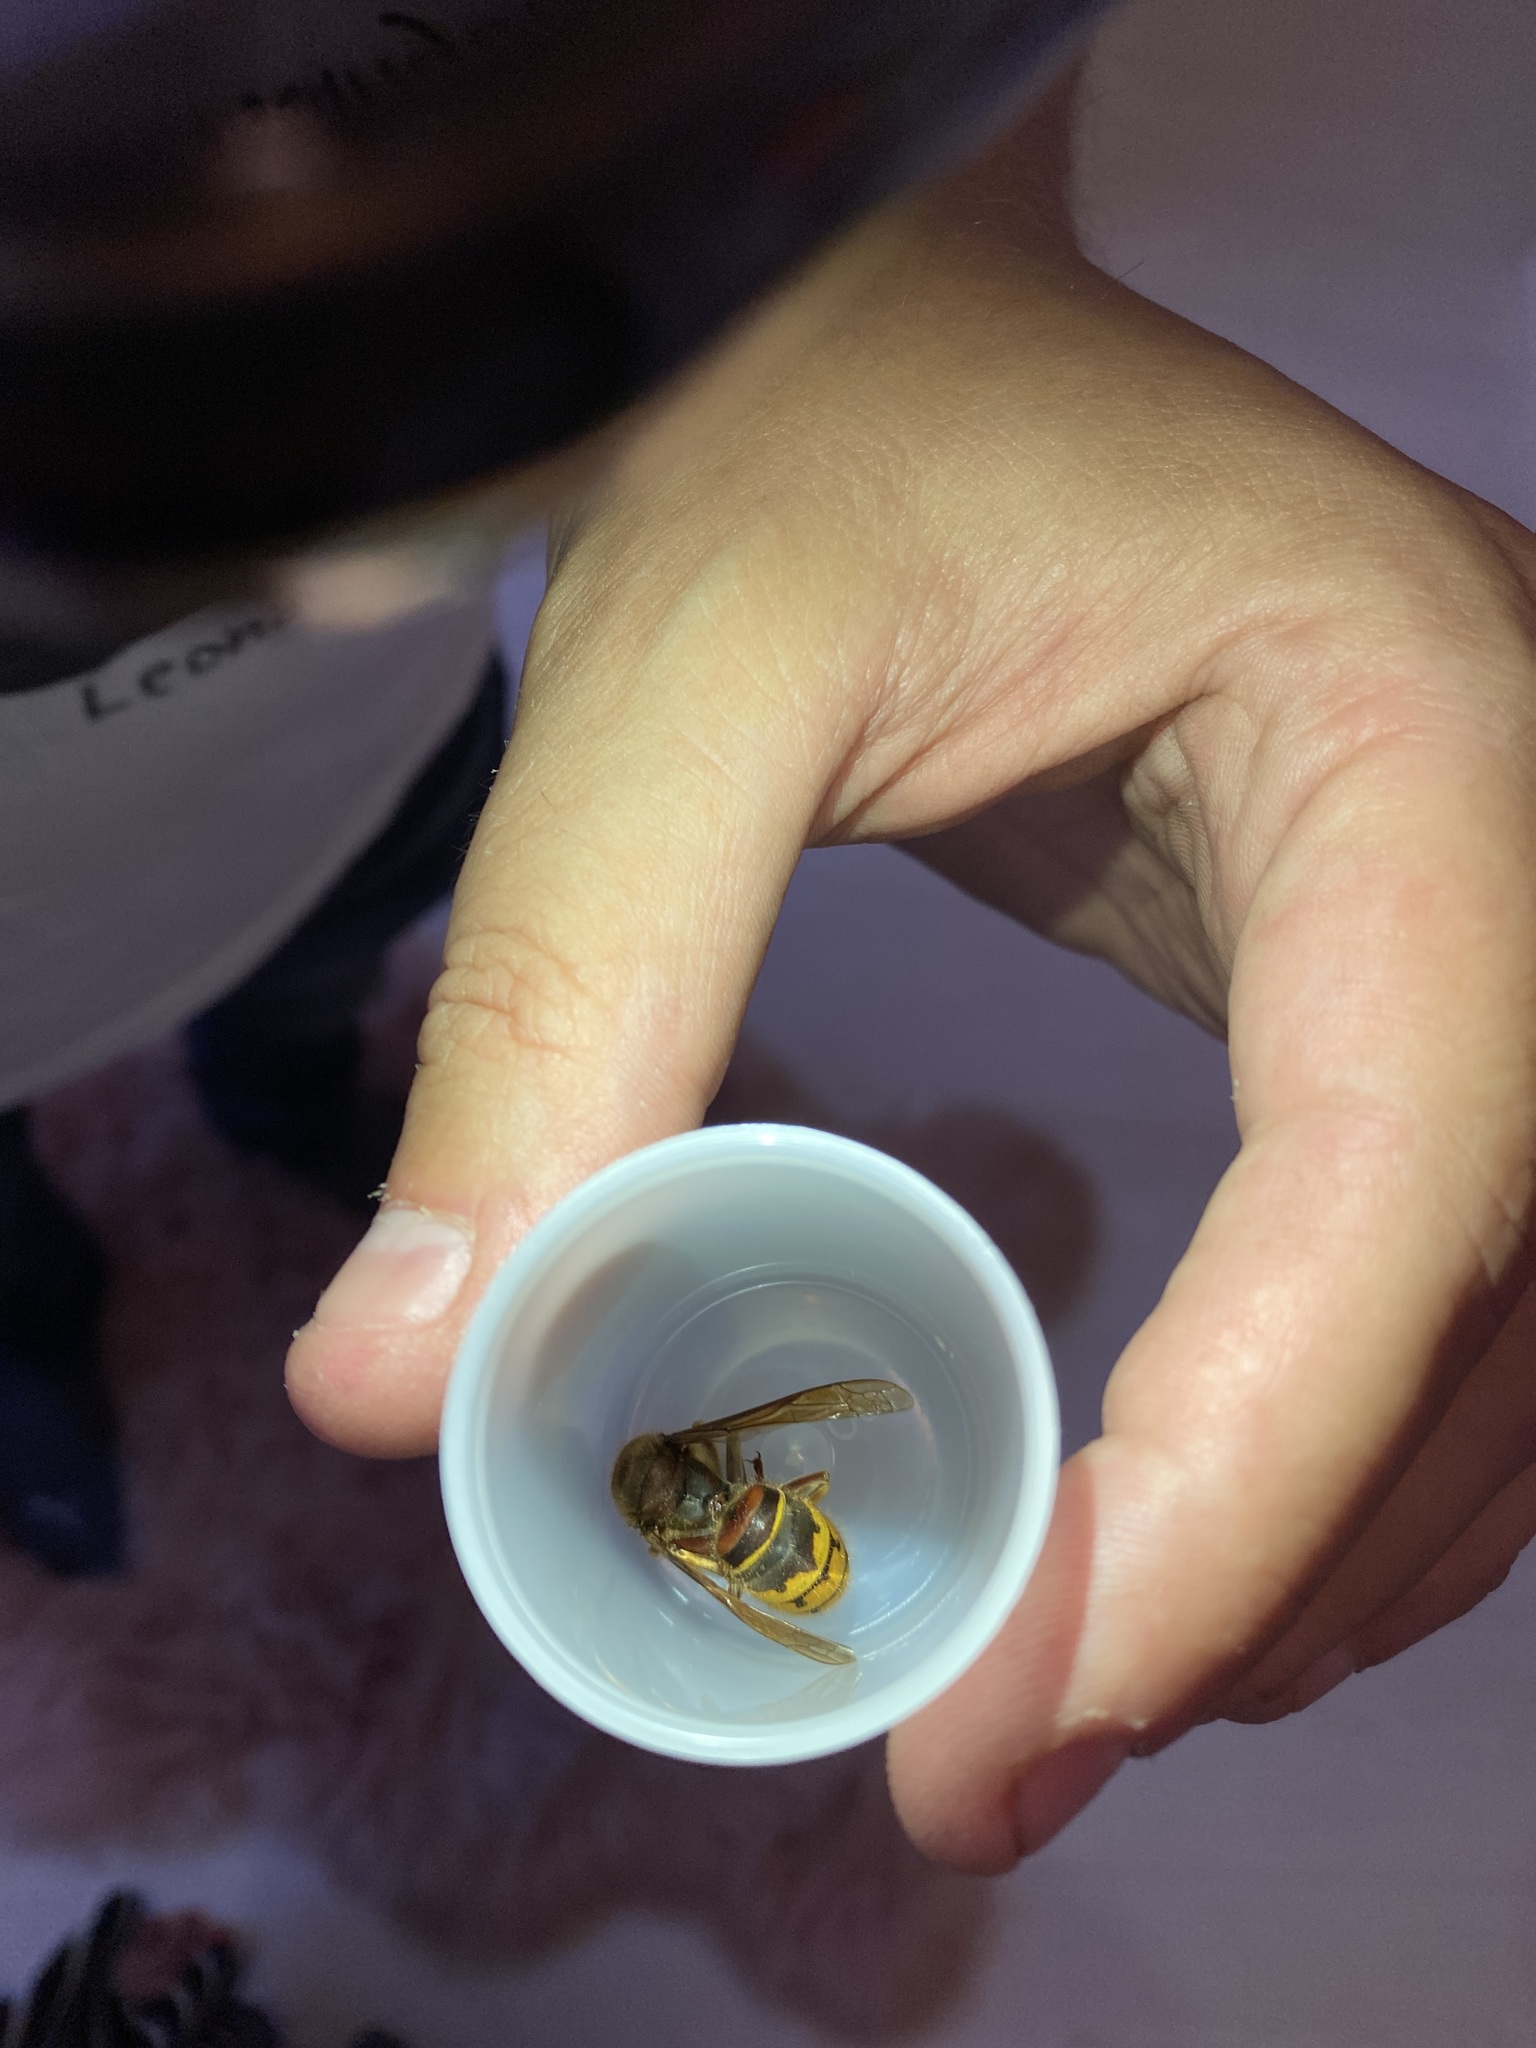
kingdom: Animalia
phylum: Arthropoda
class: Insecta
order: Hymenoptera
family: Vespidae
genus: Vespa
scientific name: Vespa crabro
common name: Hornet
